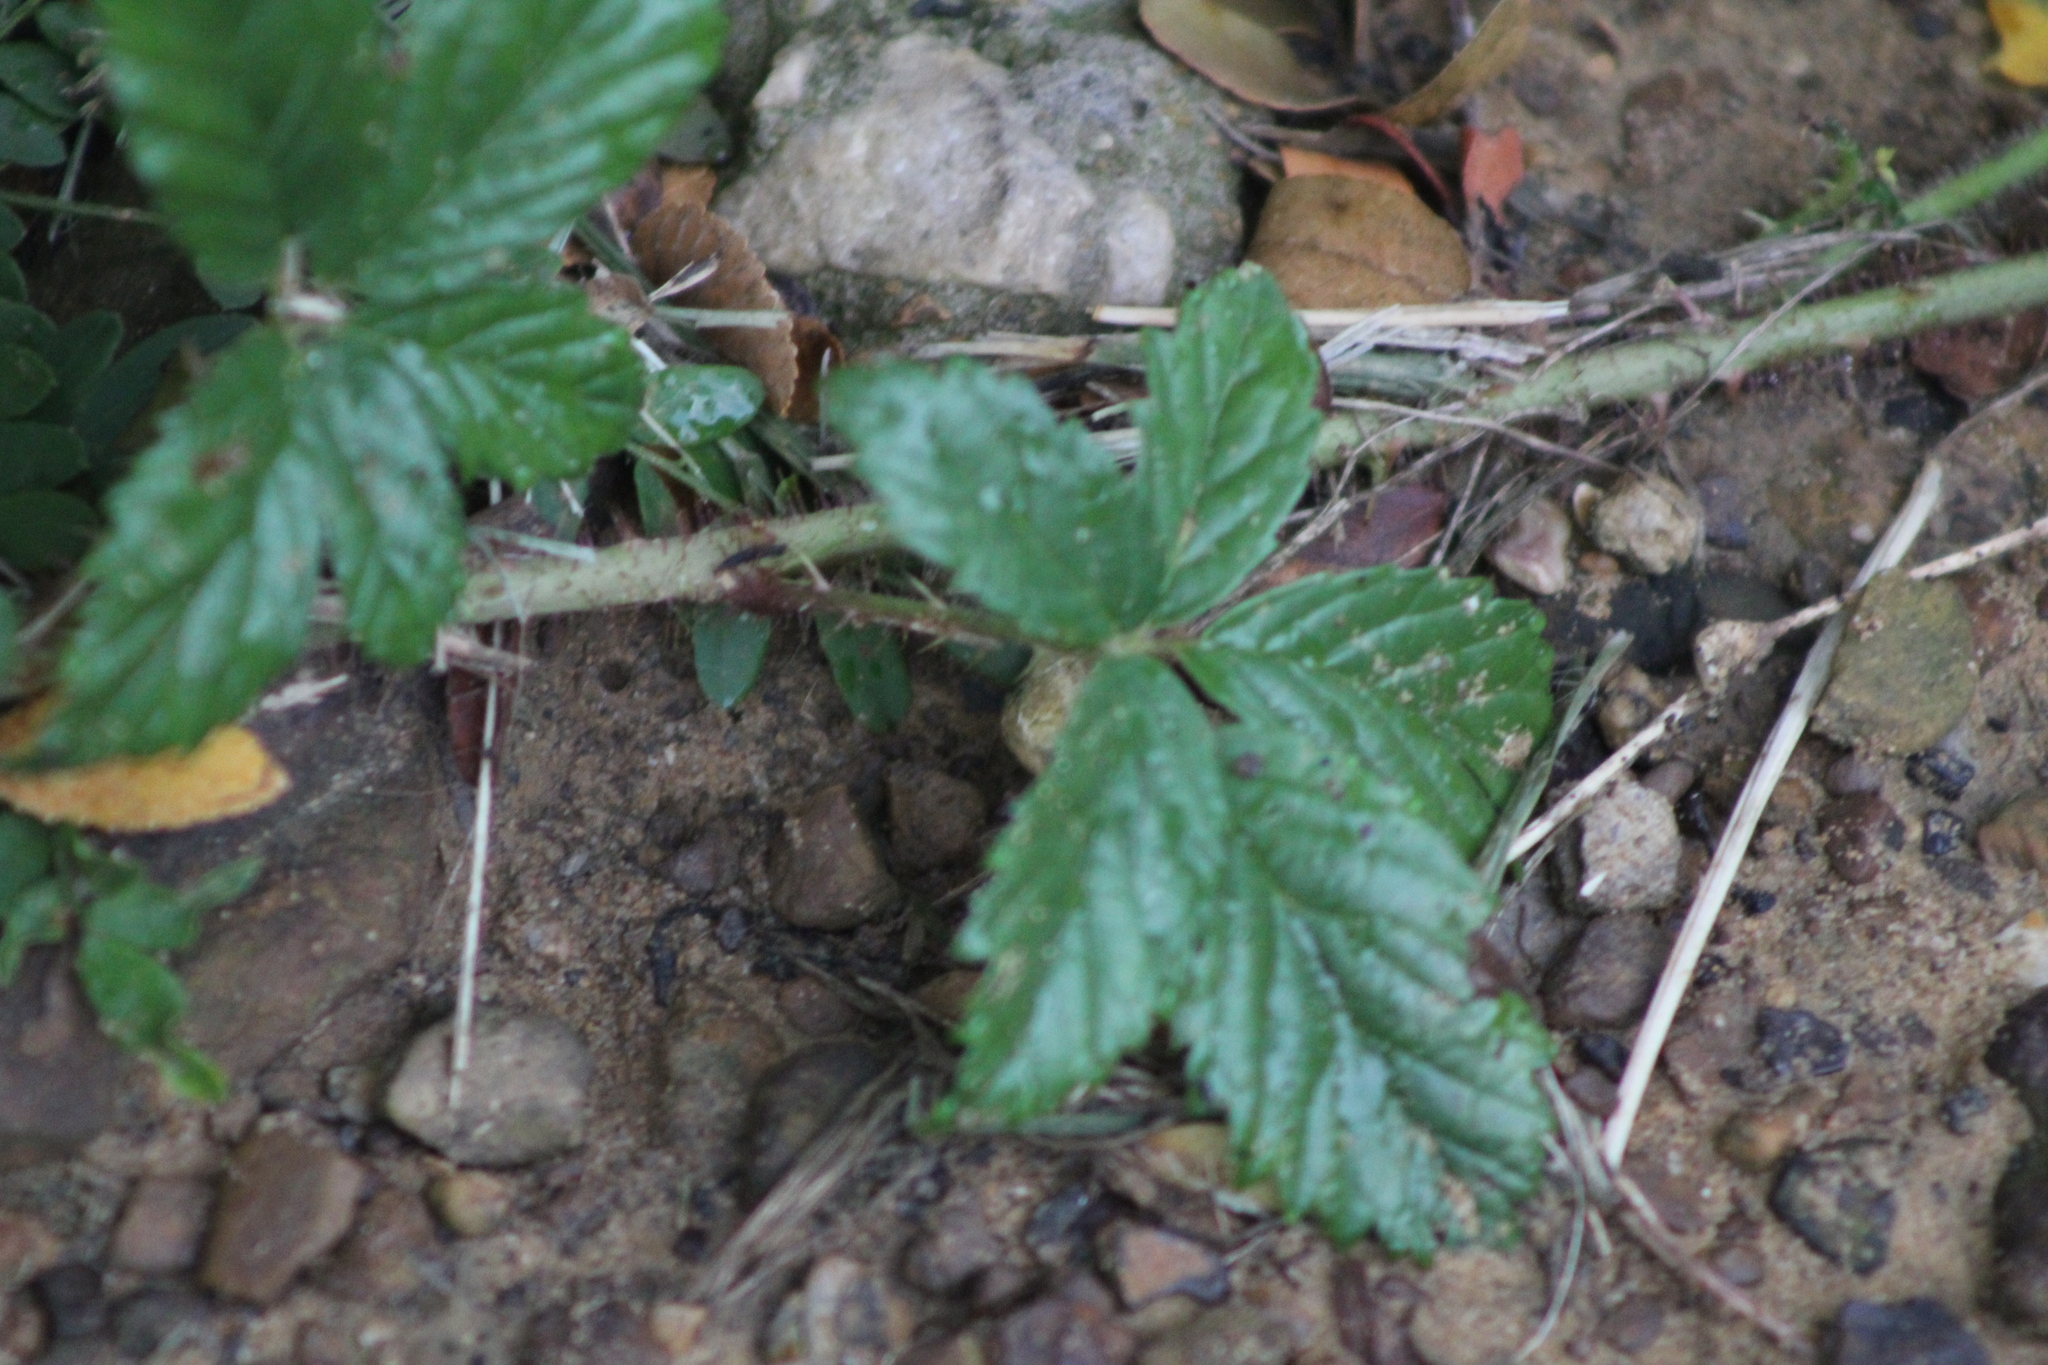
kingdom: Plantae
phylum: Tracheophyta
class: Magnoliopsida
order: Rosales
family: Rosaceae
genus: Rubus
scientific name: Rubus trivialis
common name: Southern dewberry
